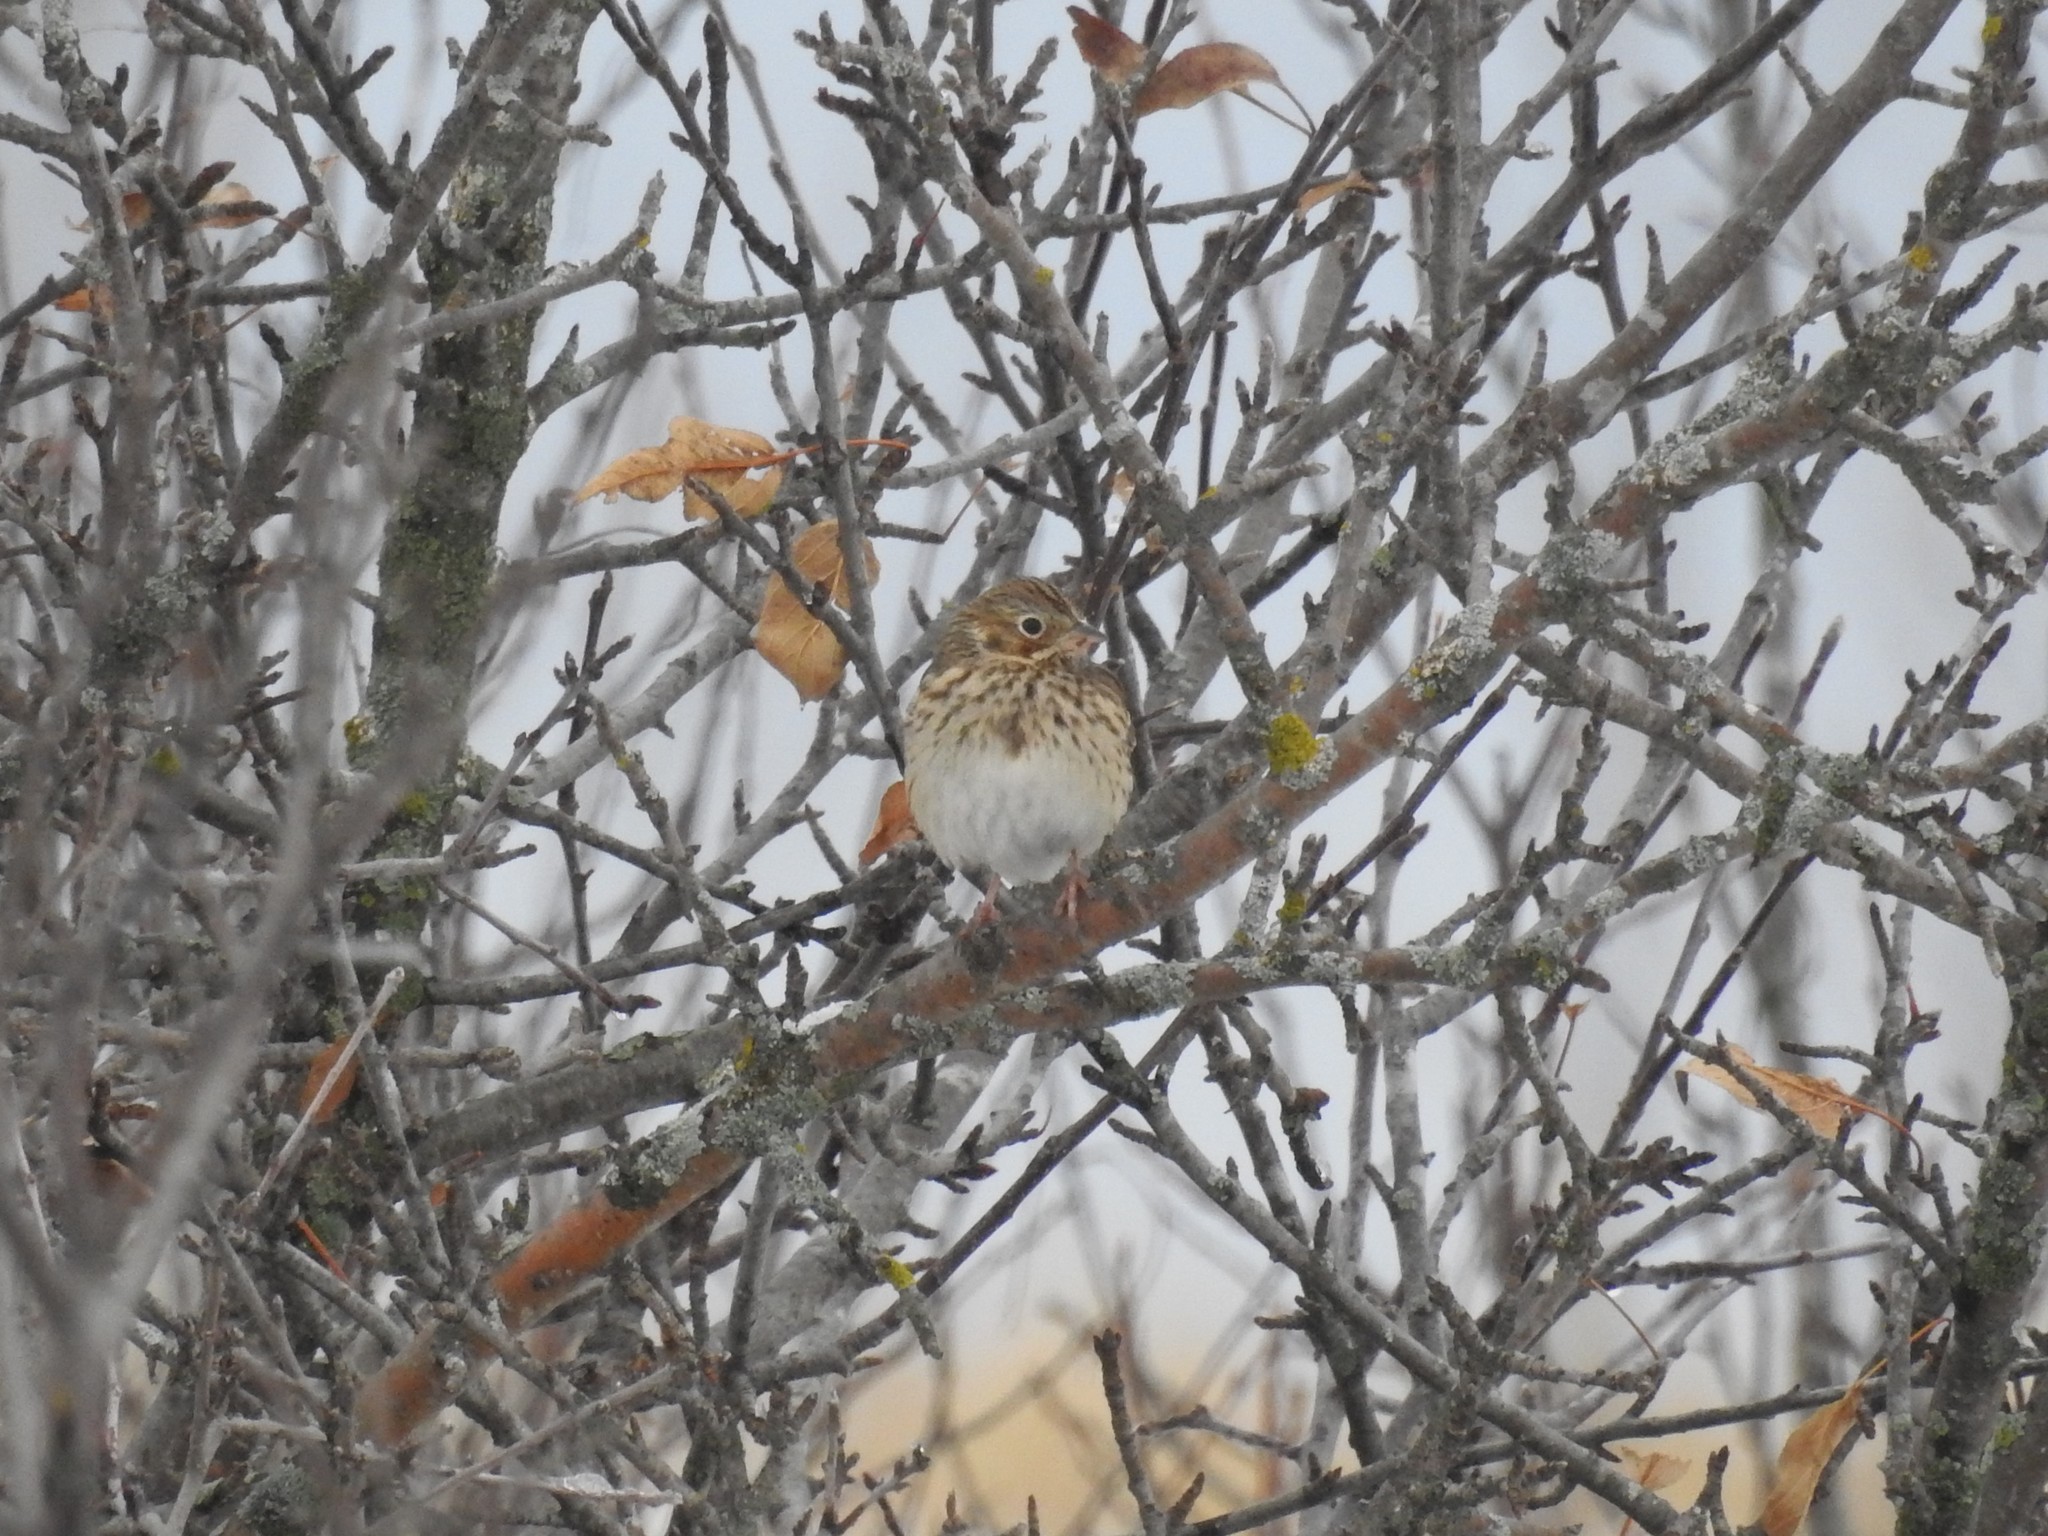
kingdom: Animalia
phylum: Chordata
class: Aves
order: Passeriformes
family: Passerellidae
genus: Pooecetes
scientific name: Pooecetes gramineus
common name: Vesper sparrow
